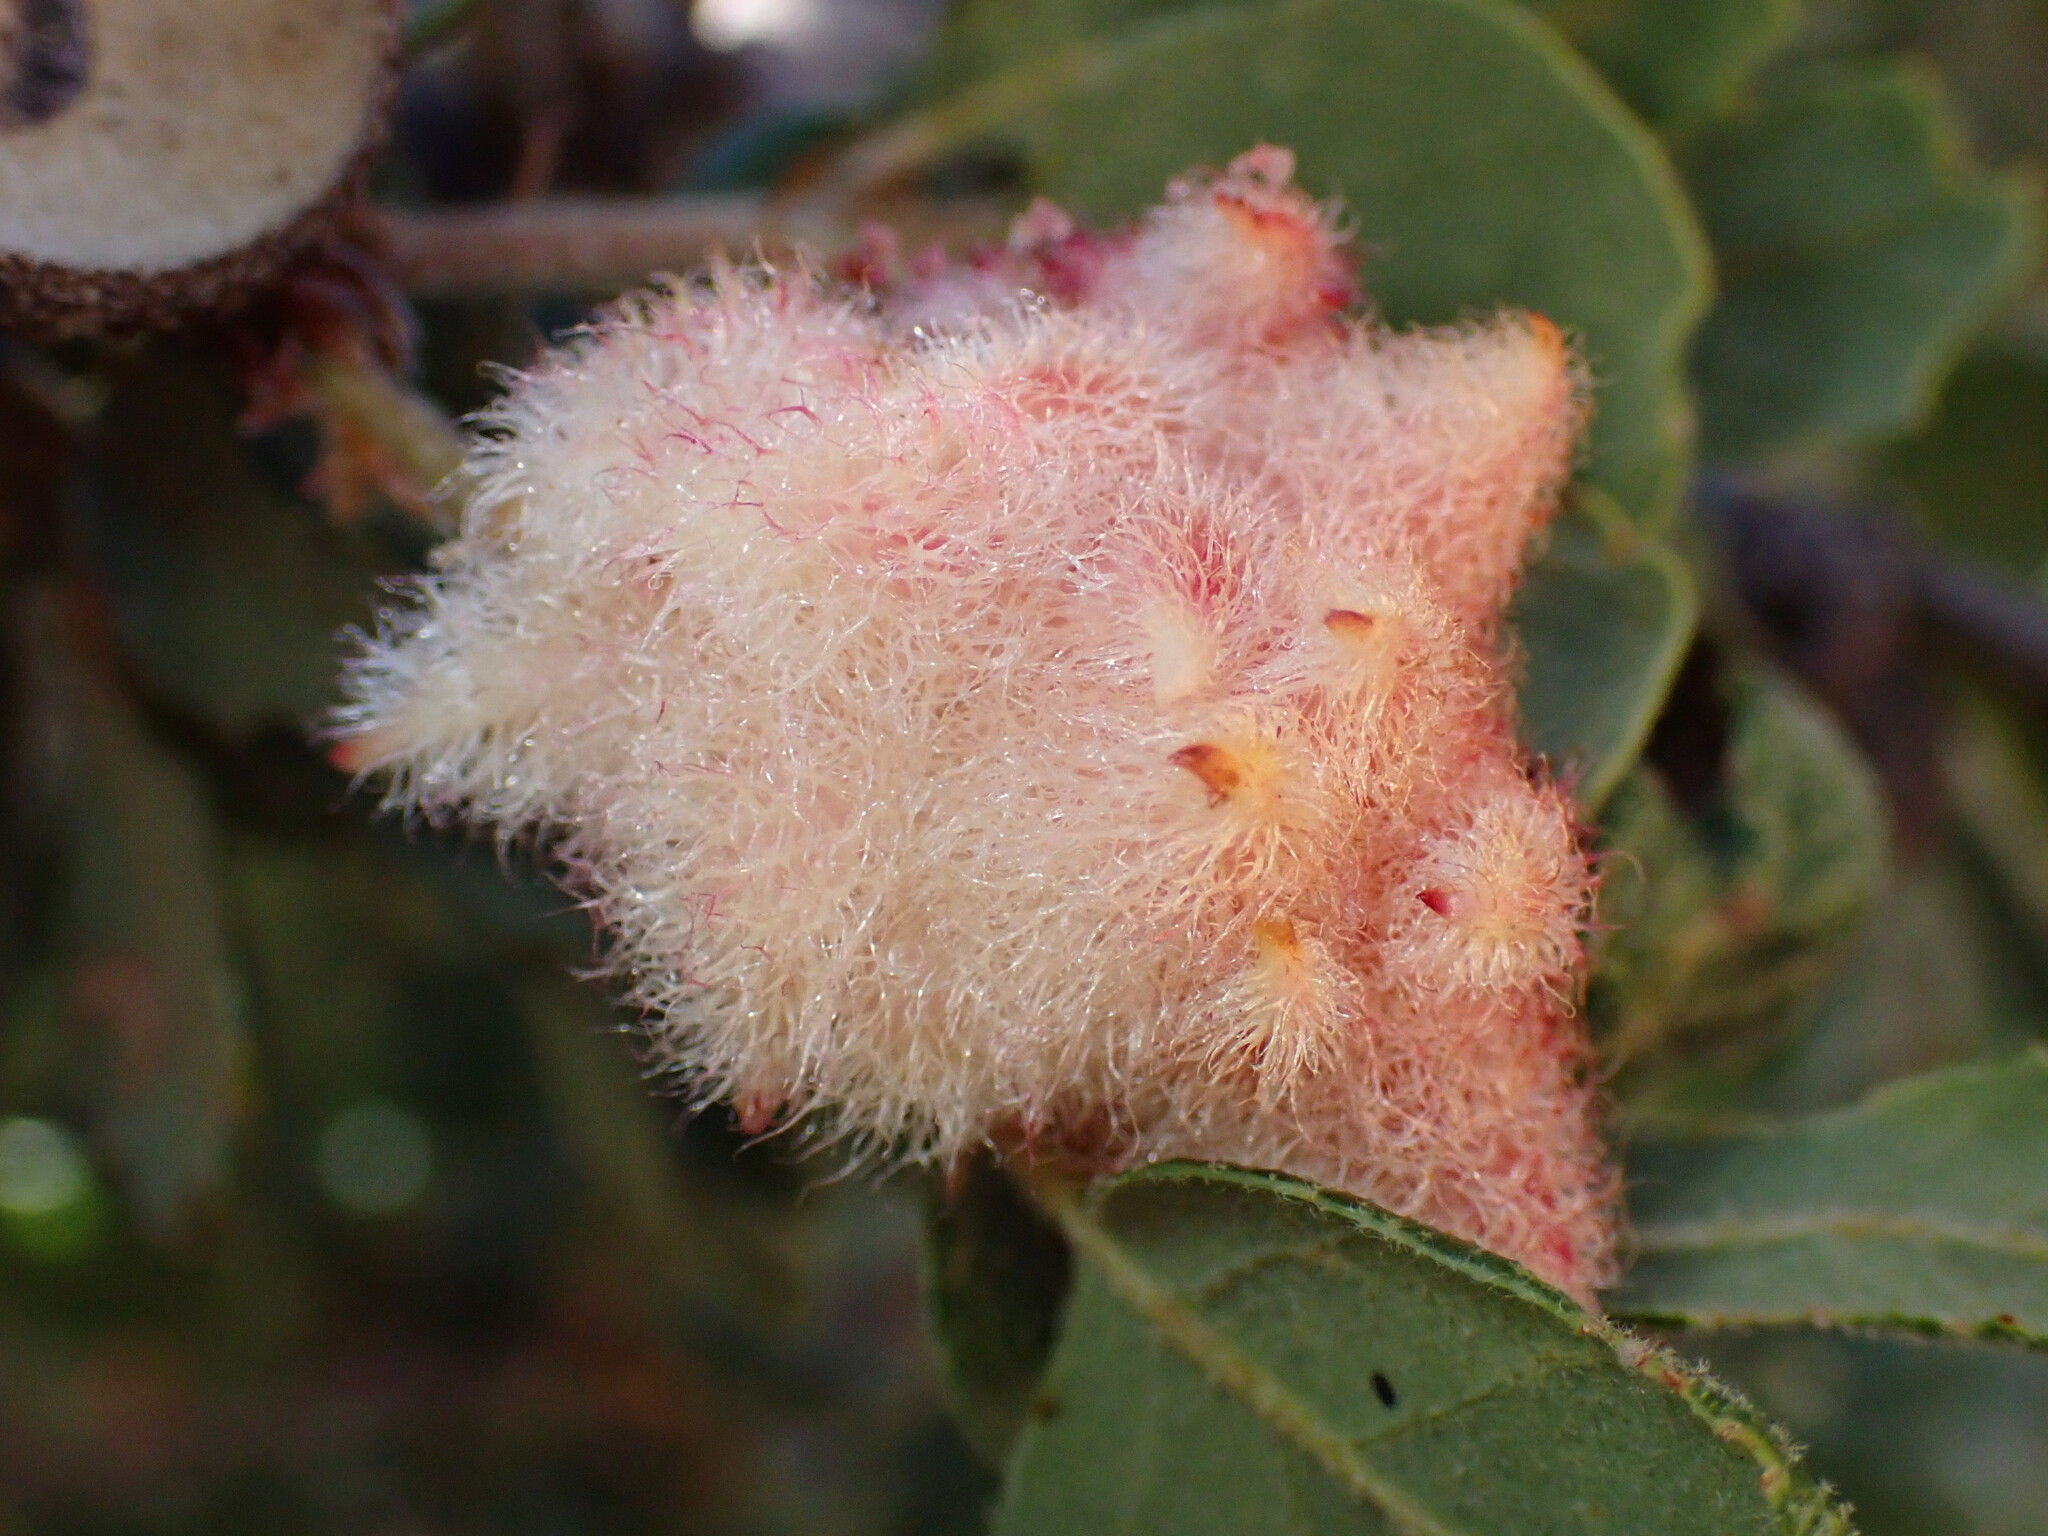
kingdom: Animalia
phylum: Arthropoda
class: Insecta
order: Hymenoptera
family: Cynipidae
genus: Andricus
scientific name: Andricus
